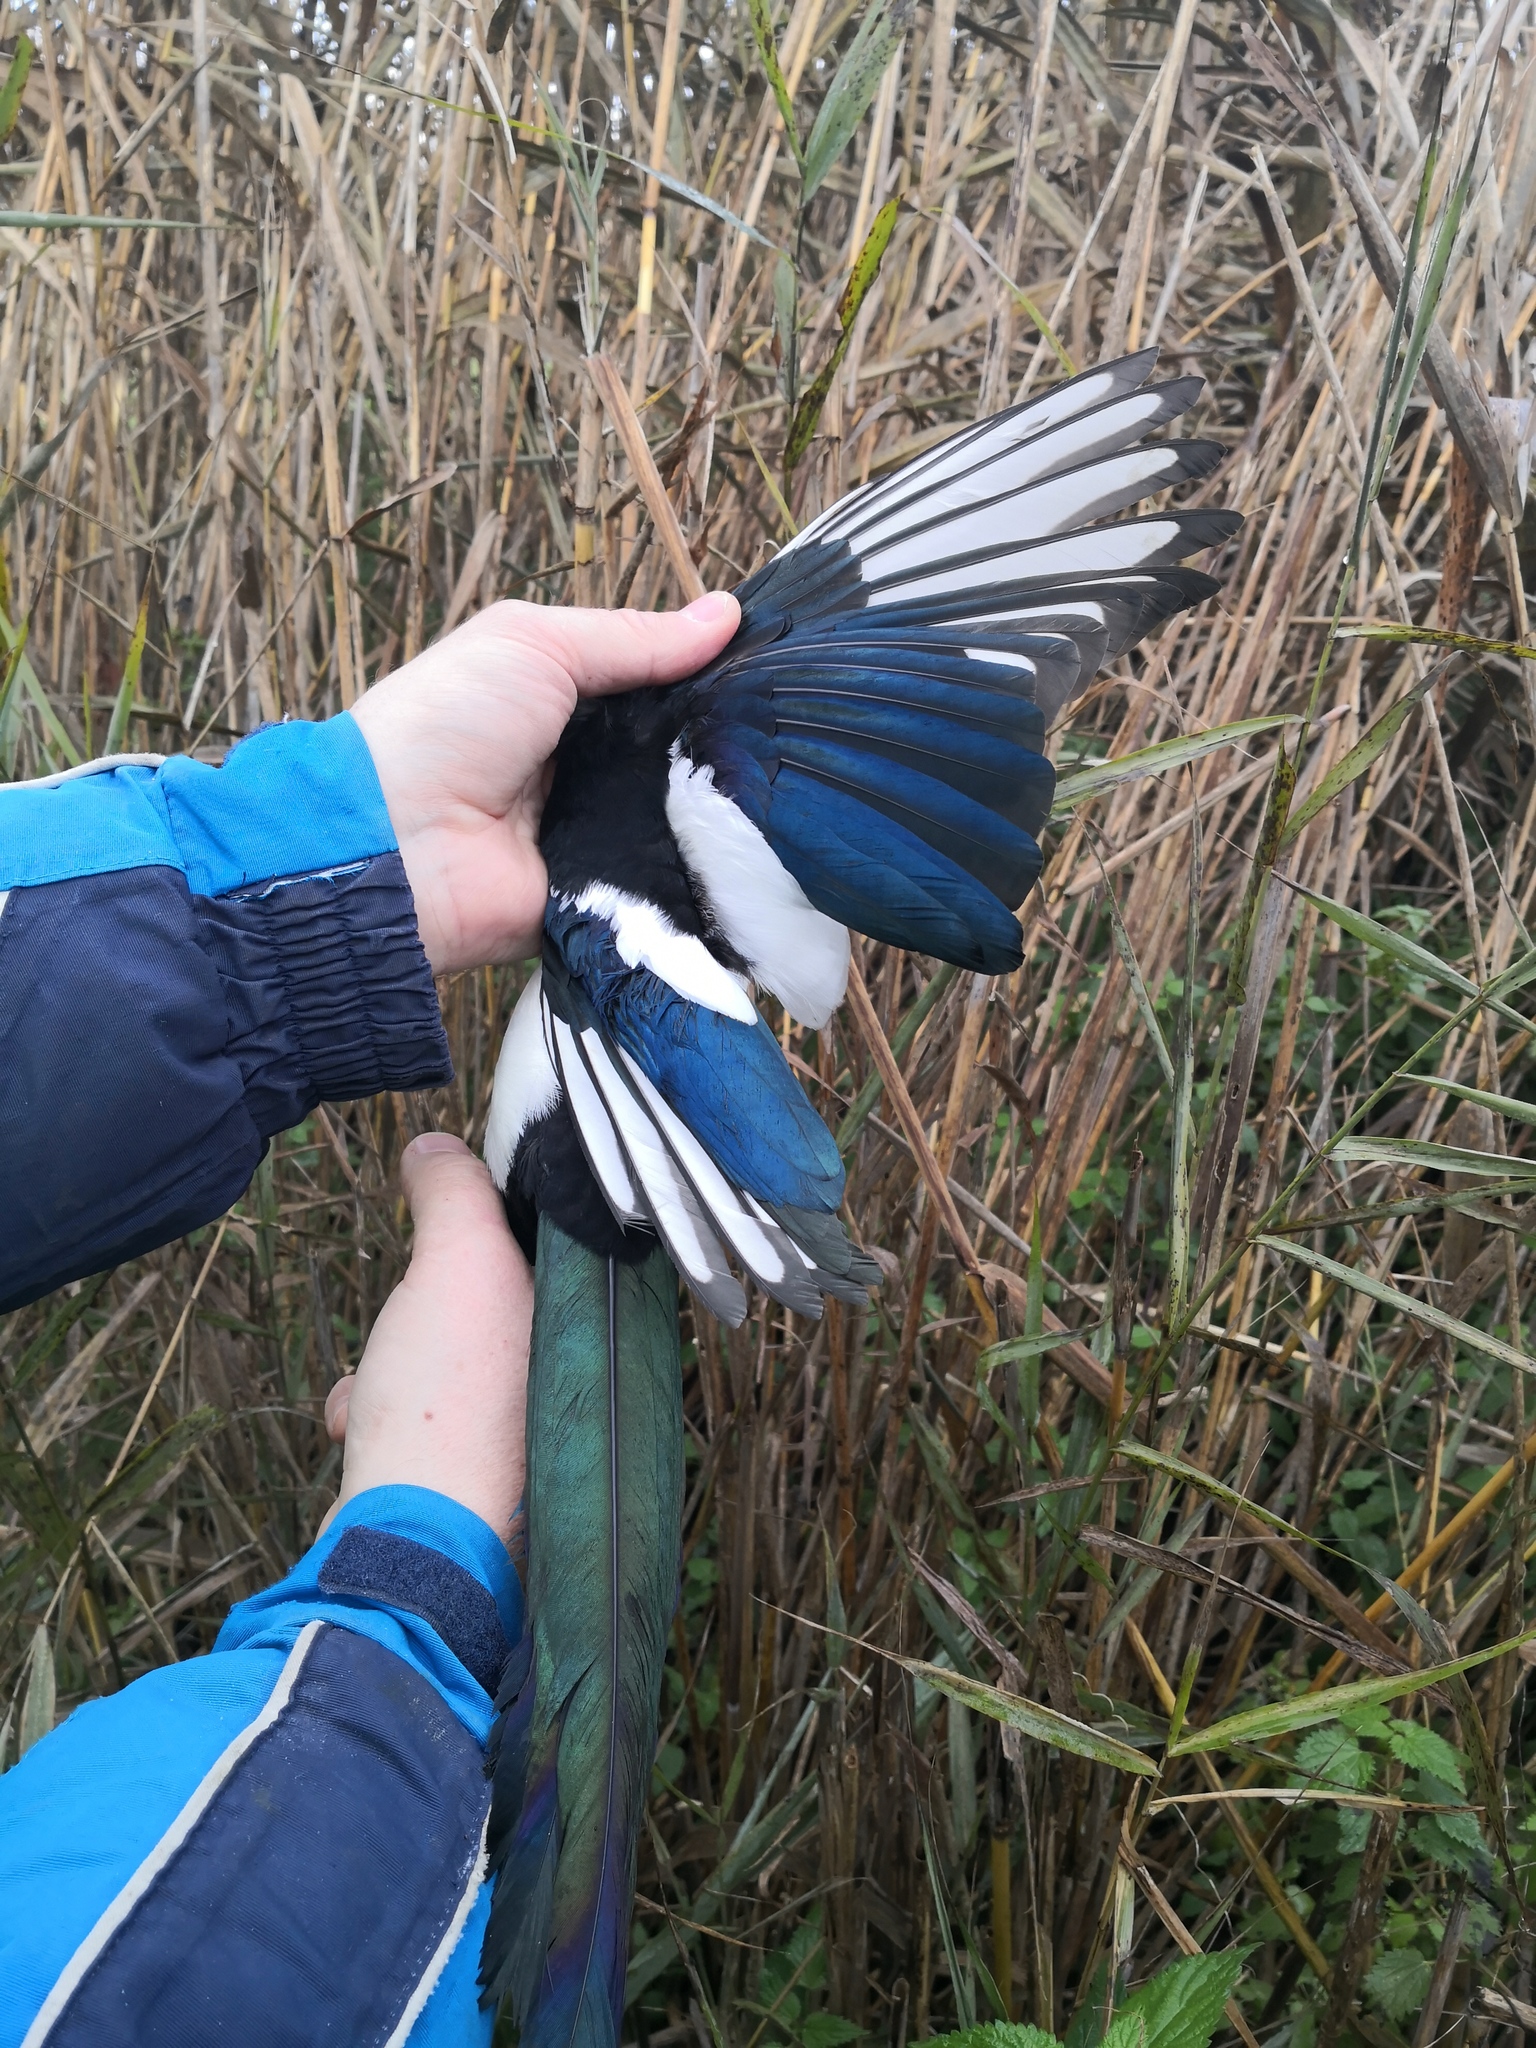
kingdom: Animalia
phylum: Chordata
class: Aves
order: Passeriformes
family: Corvidae
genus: Pica
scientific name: Pica pica
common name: Eurasian magpie
